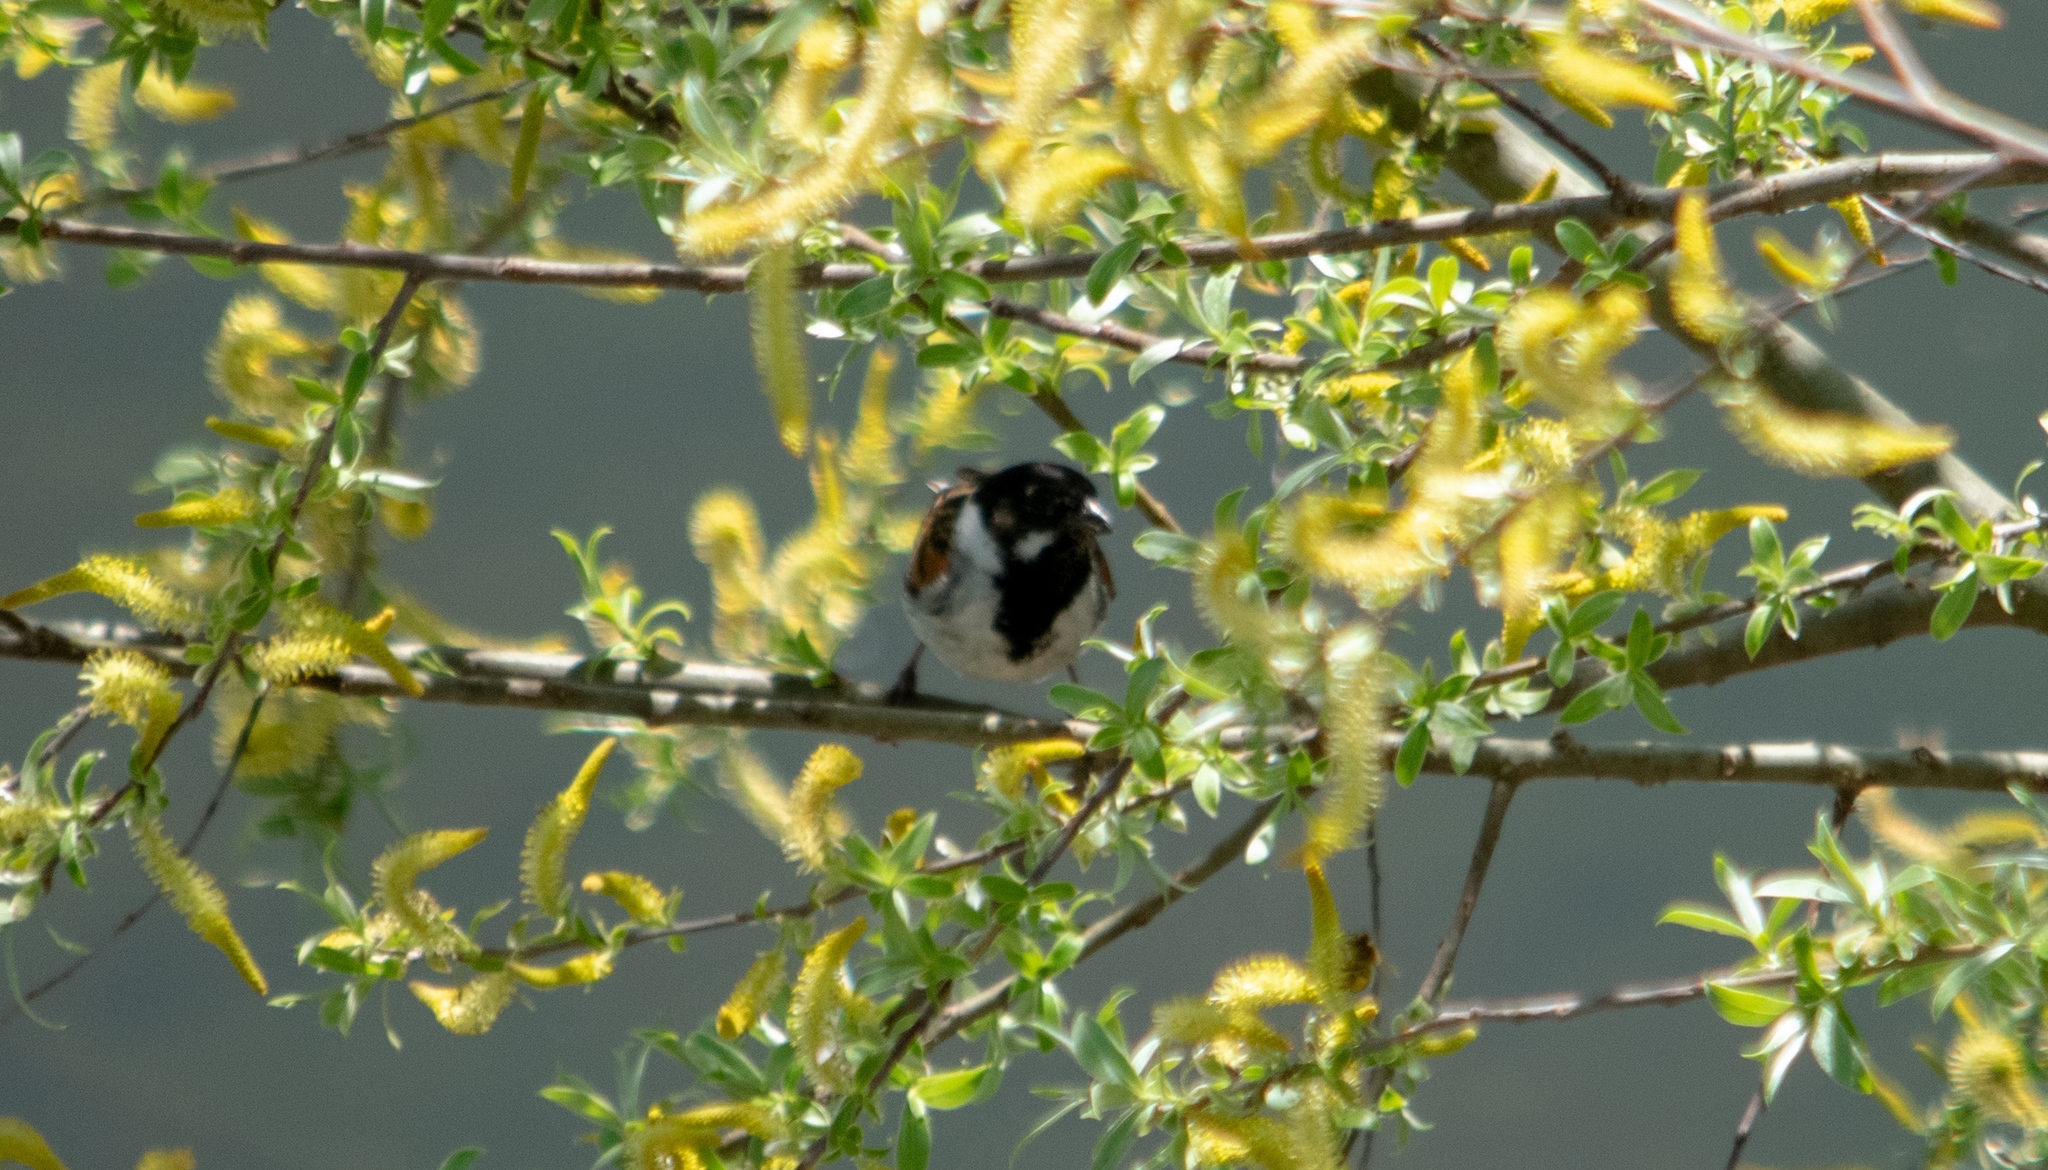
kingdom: Animalia
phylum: Chordata
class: Aves
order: Passeriformes
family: Emberizidae
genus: Emberiza
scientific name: Emberiza schoeniclus
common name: Reed bunting
